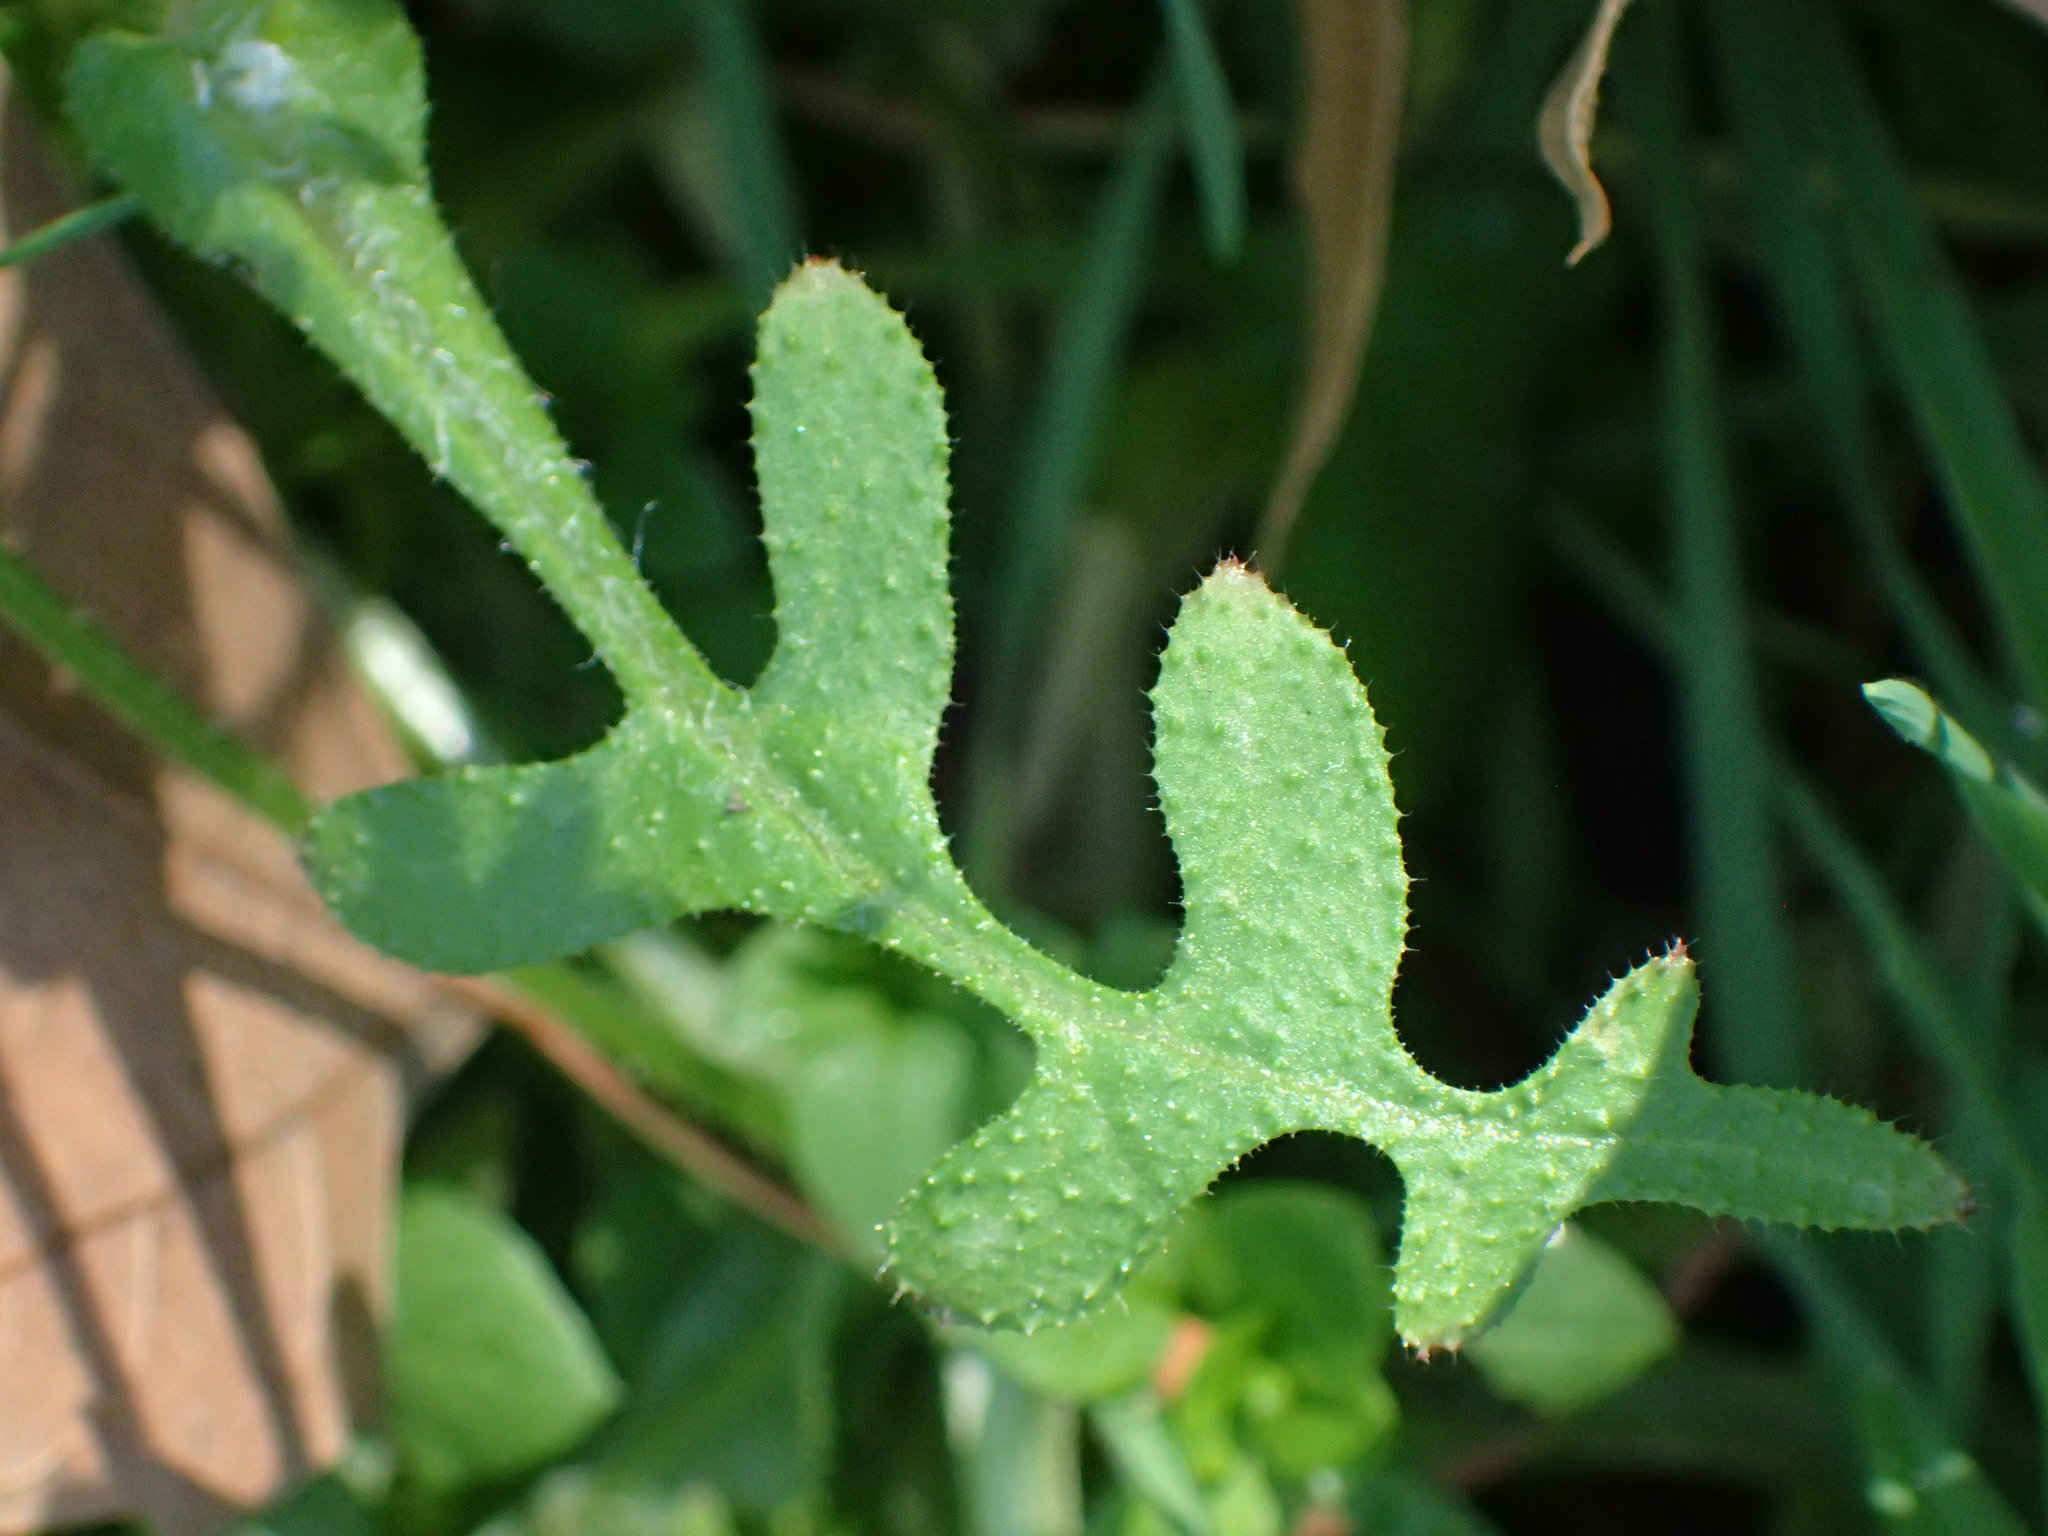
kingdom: Plantae
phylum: Tracheophyta
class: Magnoliopsida
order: Boraginales
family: Hydrophyllaceae
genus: Pholistoma
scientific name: Pholistoma auritum
